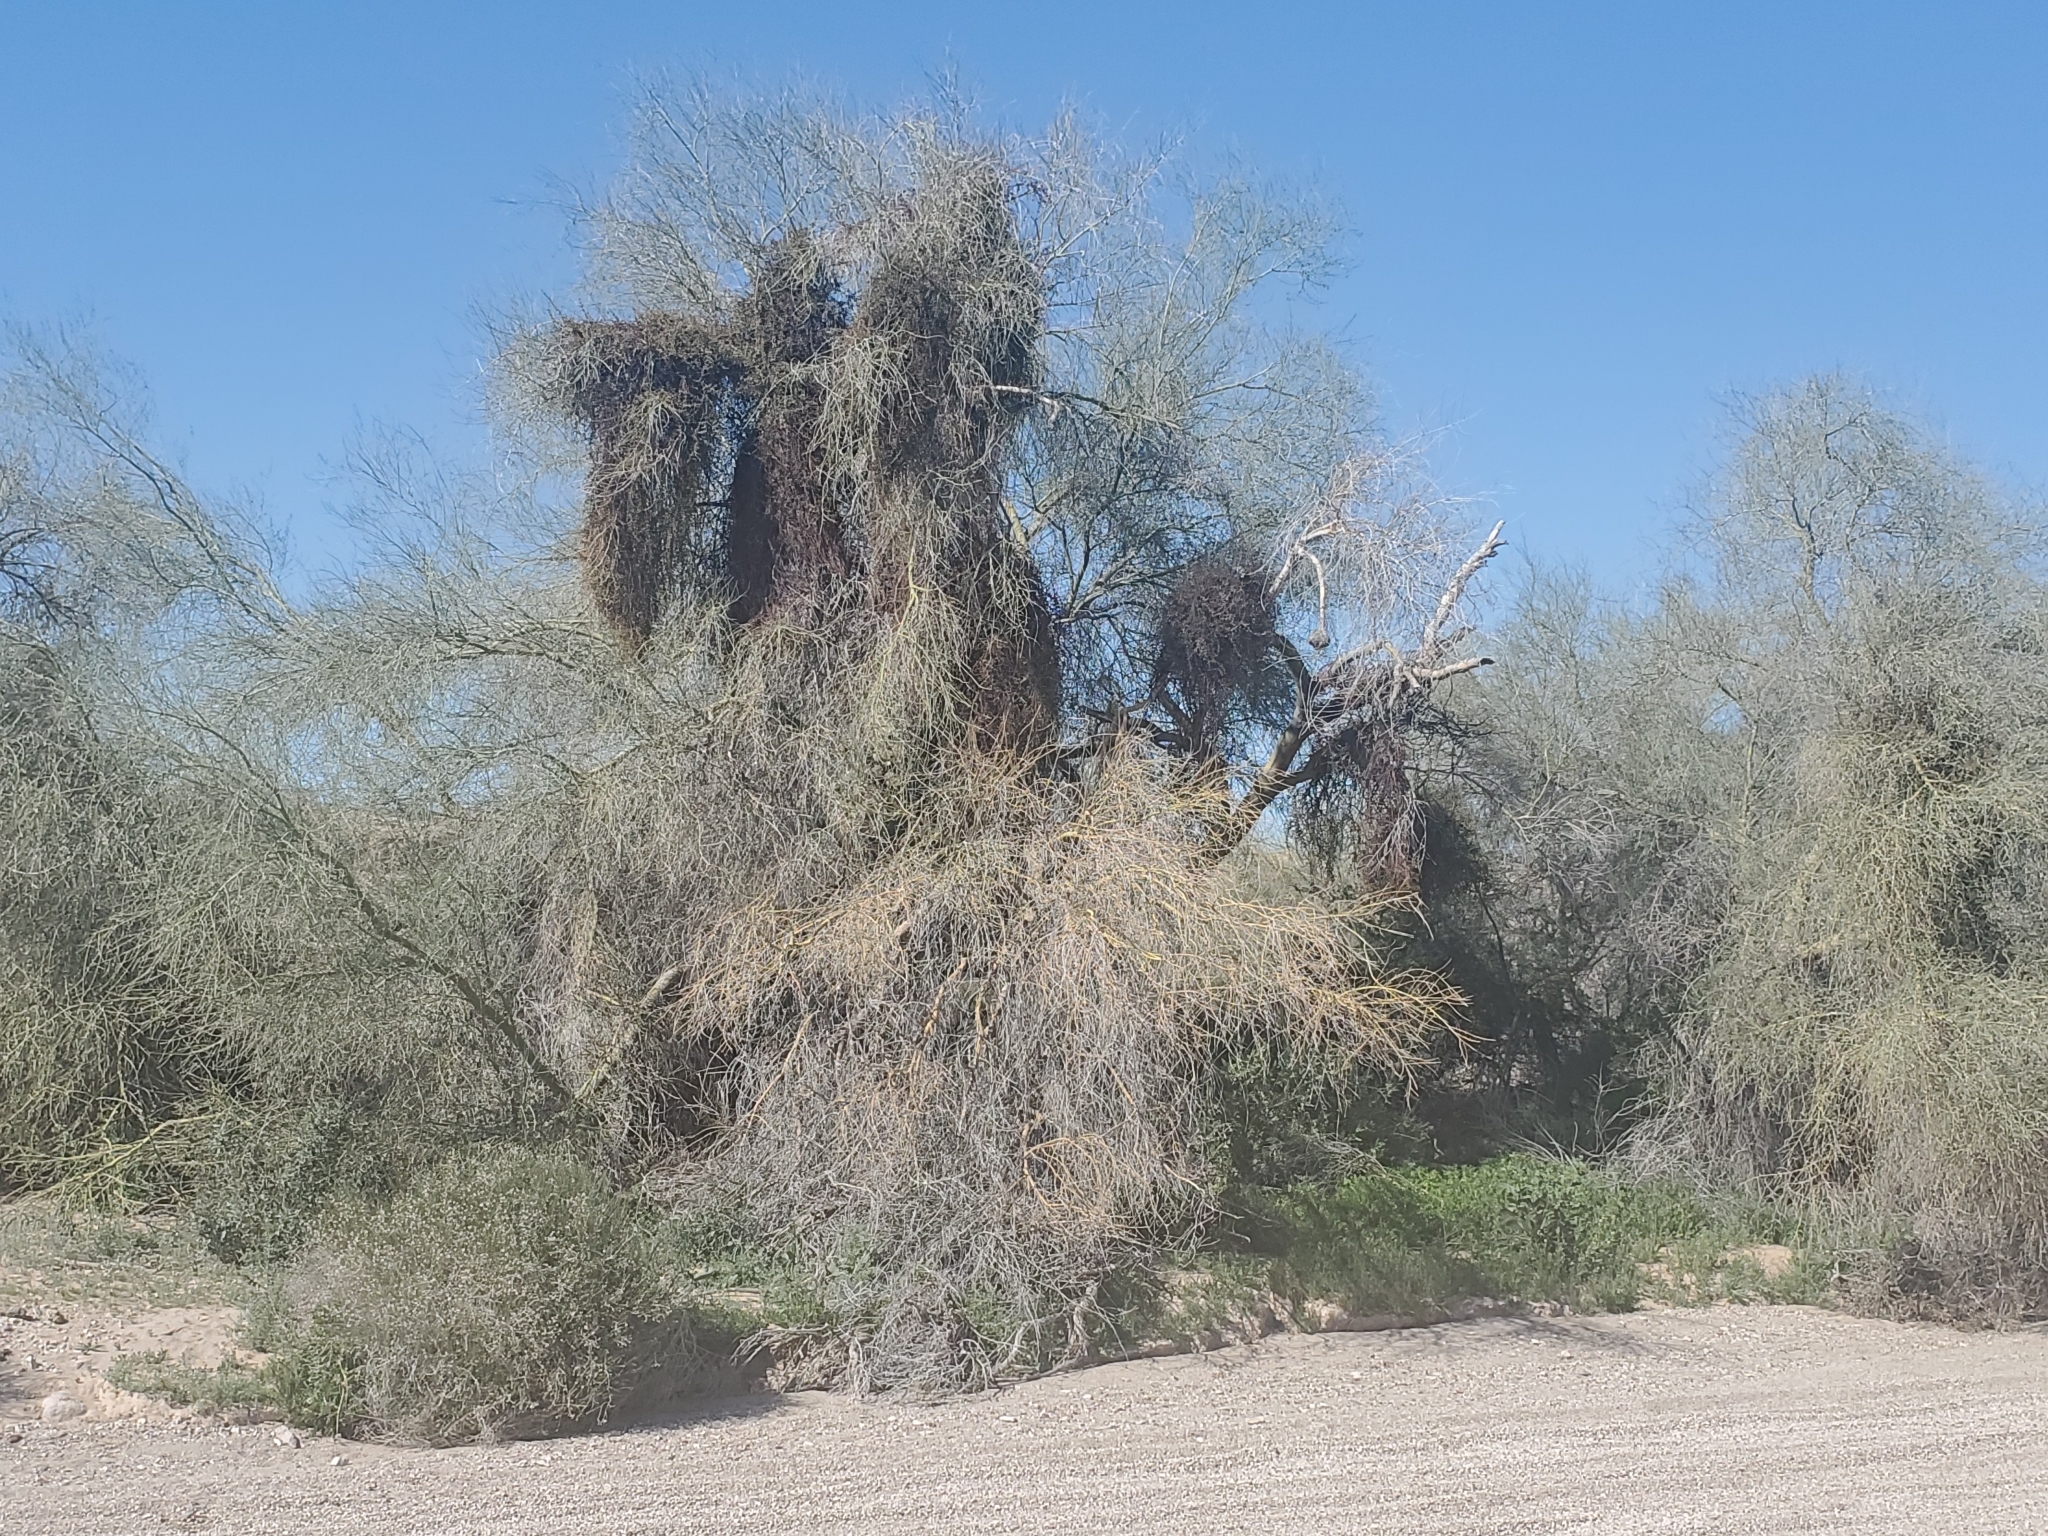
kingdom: Plantae
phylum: Tracheophyta
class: Magnoliopsida
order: Fabales
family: Fabaceae
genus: Parkinsonia
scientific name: Parkinsonia florida
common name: Blue paloverde
